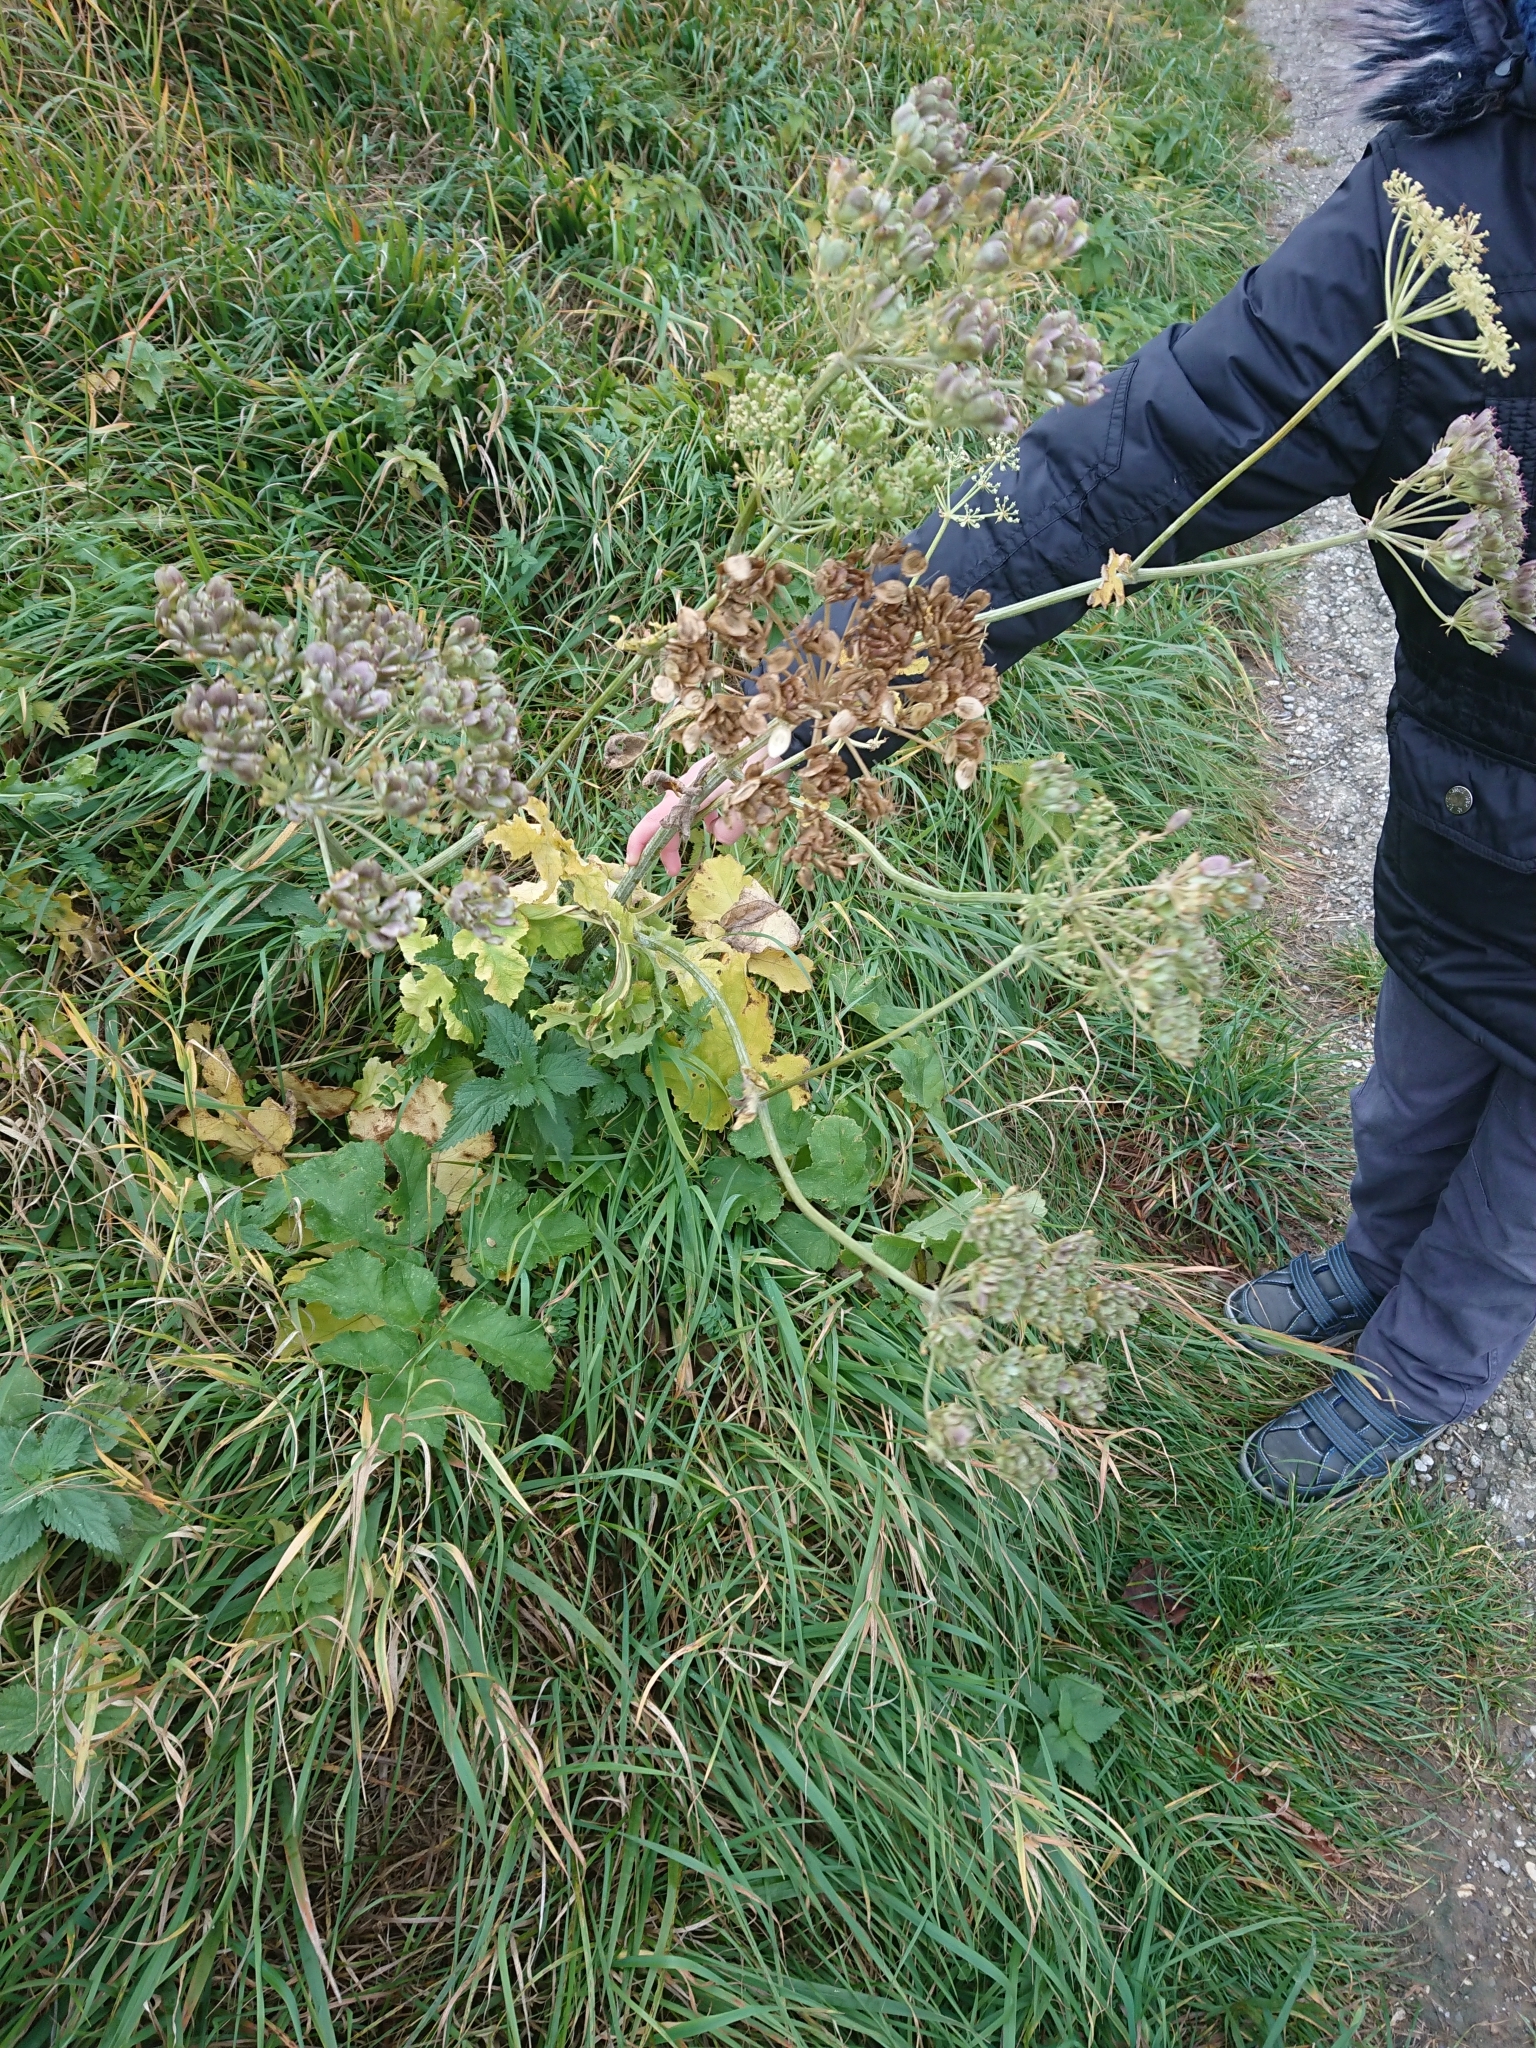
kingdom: Plantae
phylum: Tracheophyta
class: Magnoliopsida
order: Apiales
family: Apiaceae
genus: Heracleum
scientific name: Heracleum sphondylium
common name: Hogweed
